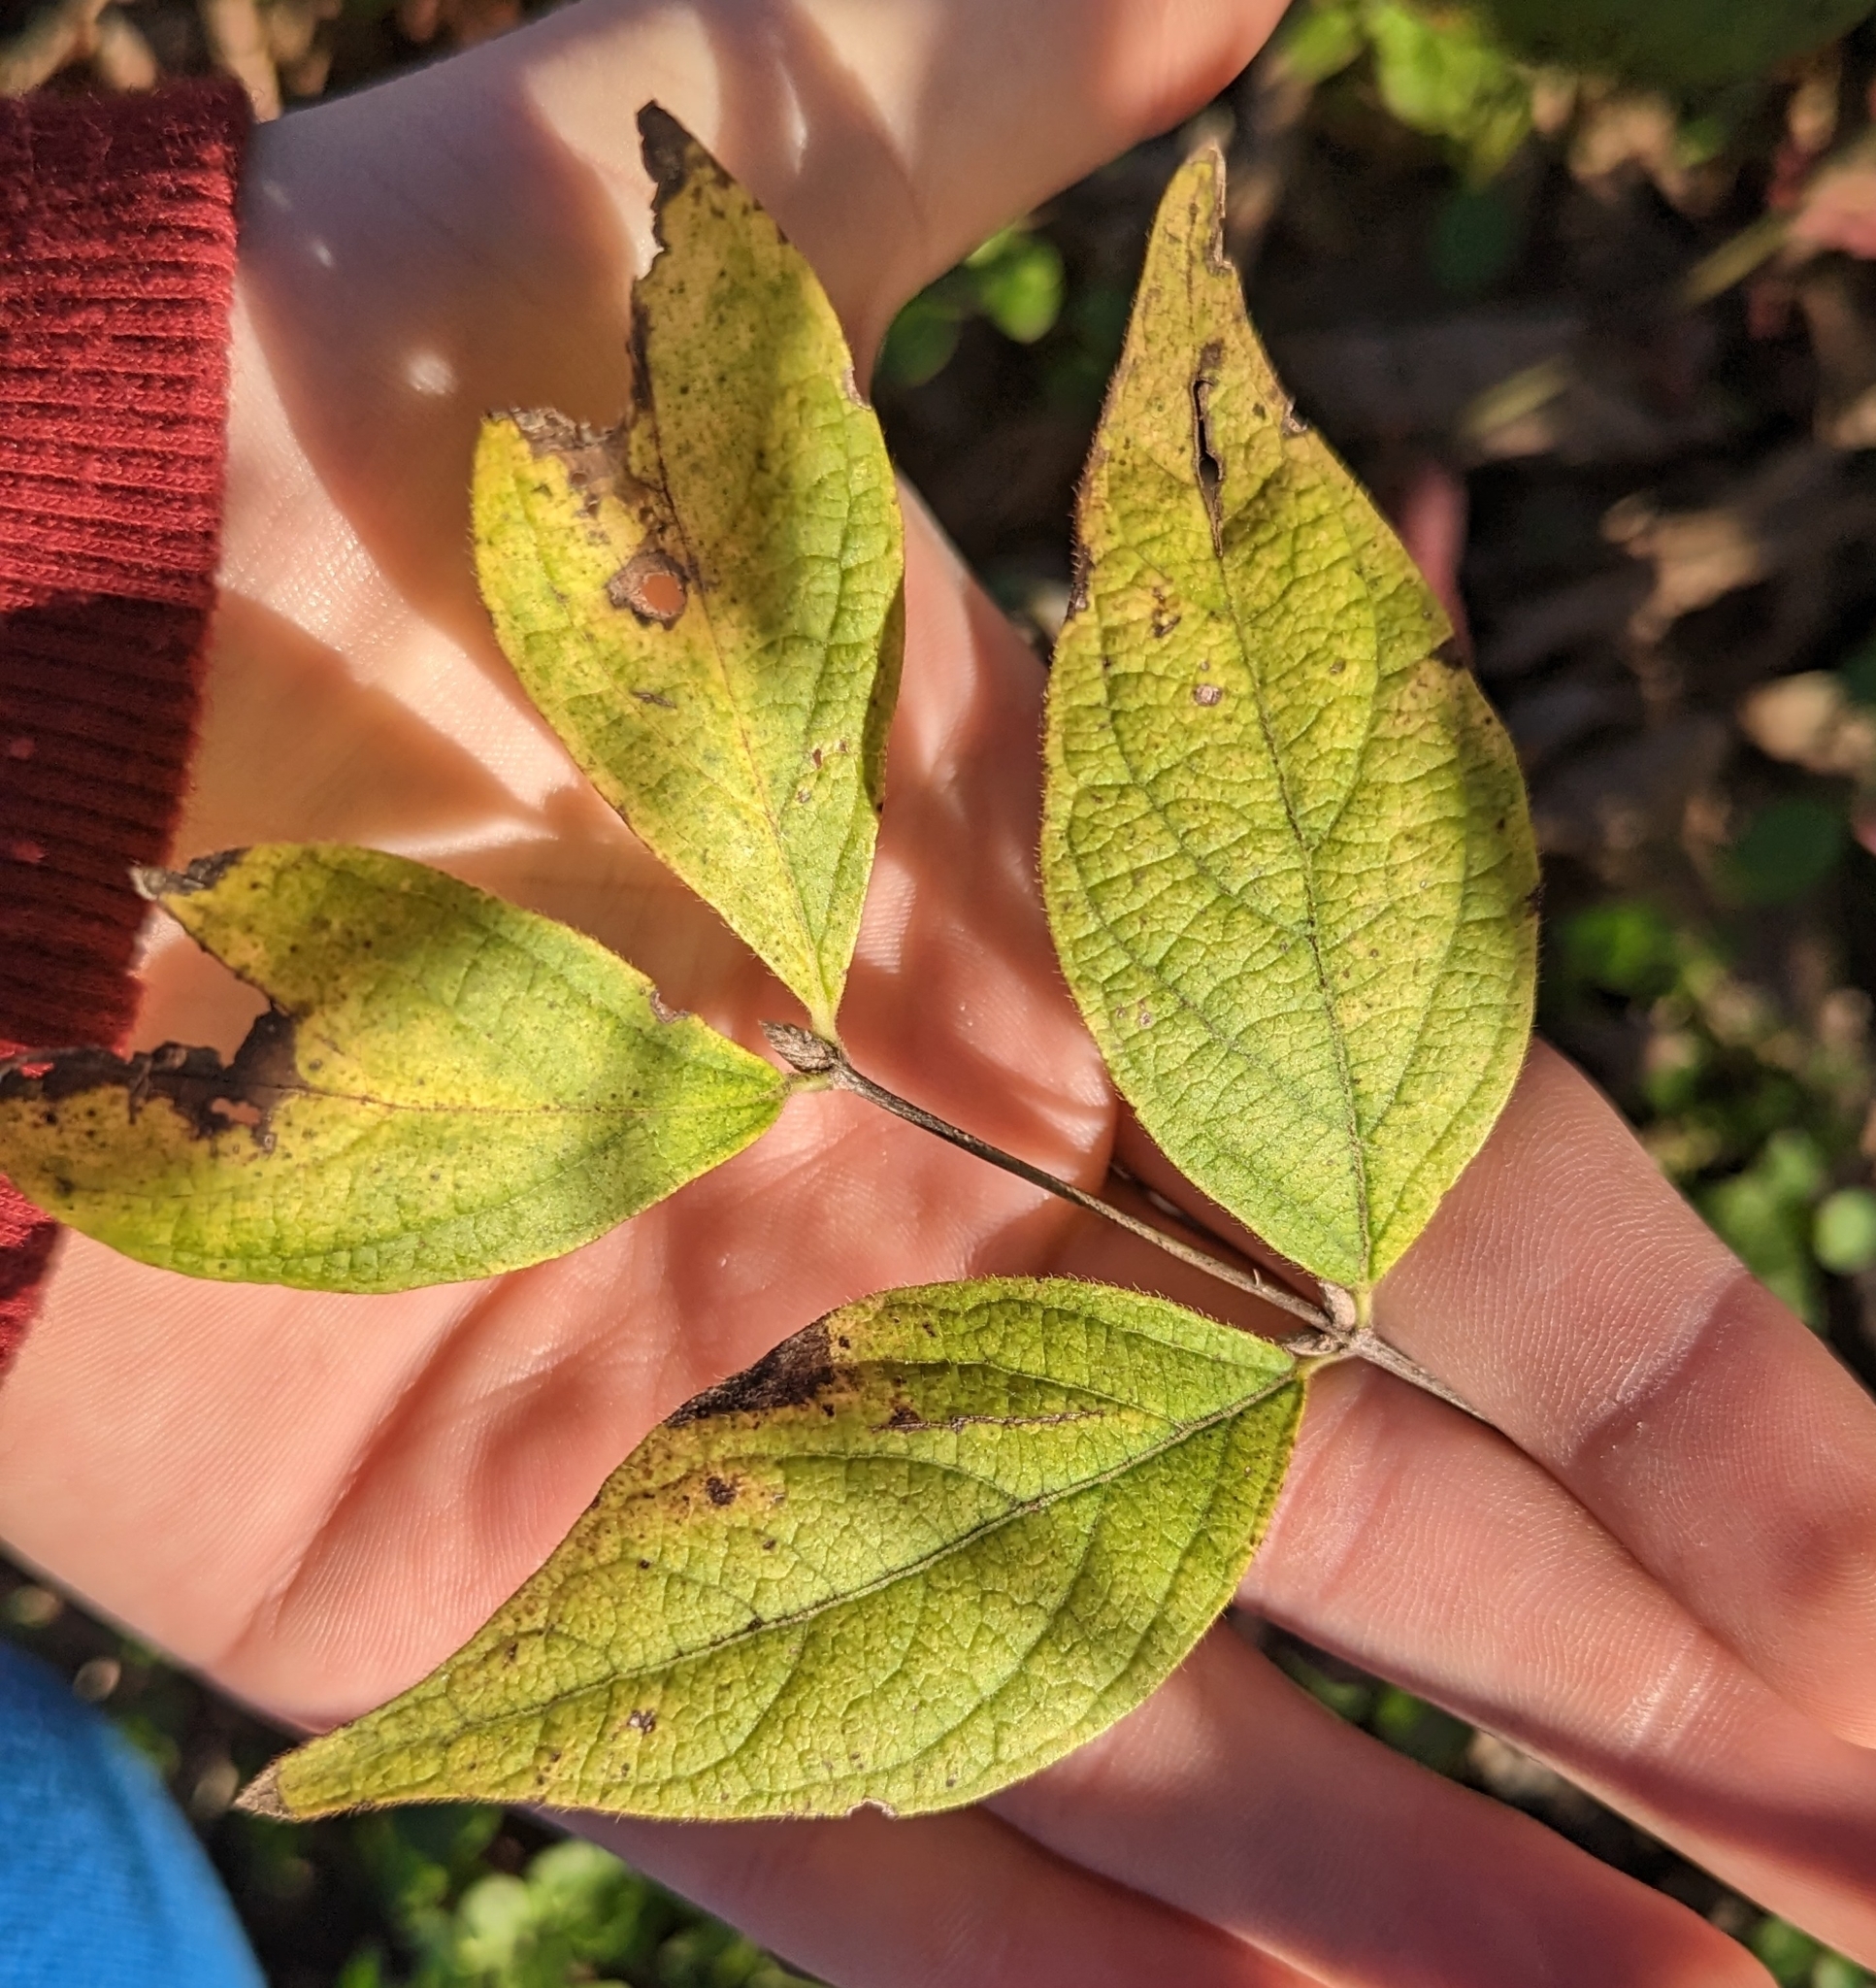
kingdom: Plantae
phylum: Tracheophyta
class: Magnoliopsida
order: Dipsacales
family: Caprifoliaceae
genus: Lonicera
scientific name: Lonicera maackii
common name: Amur honeysuckle
